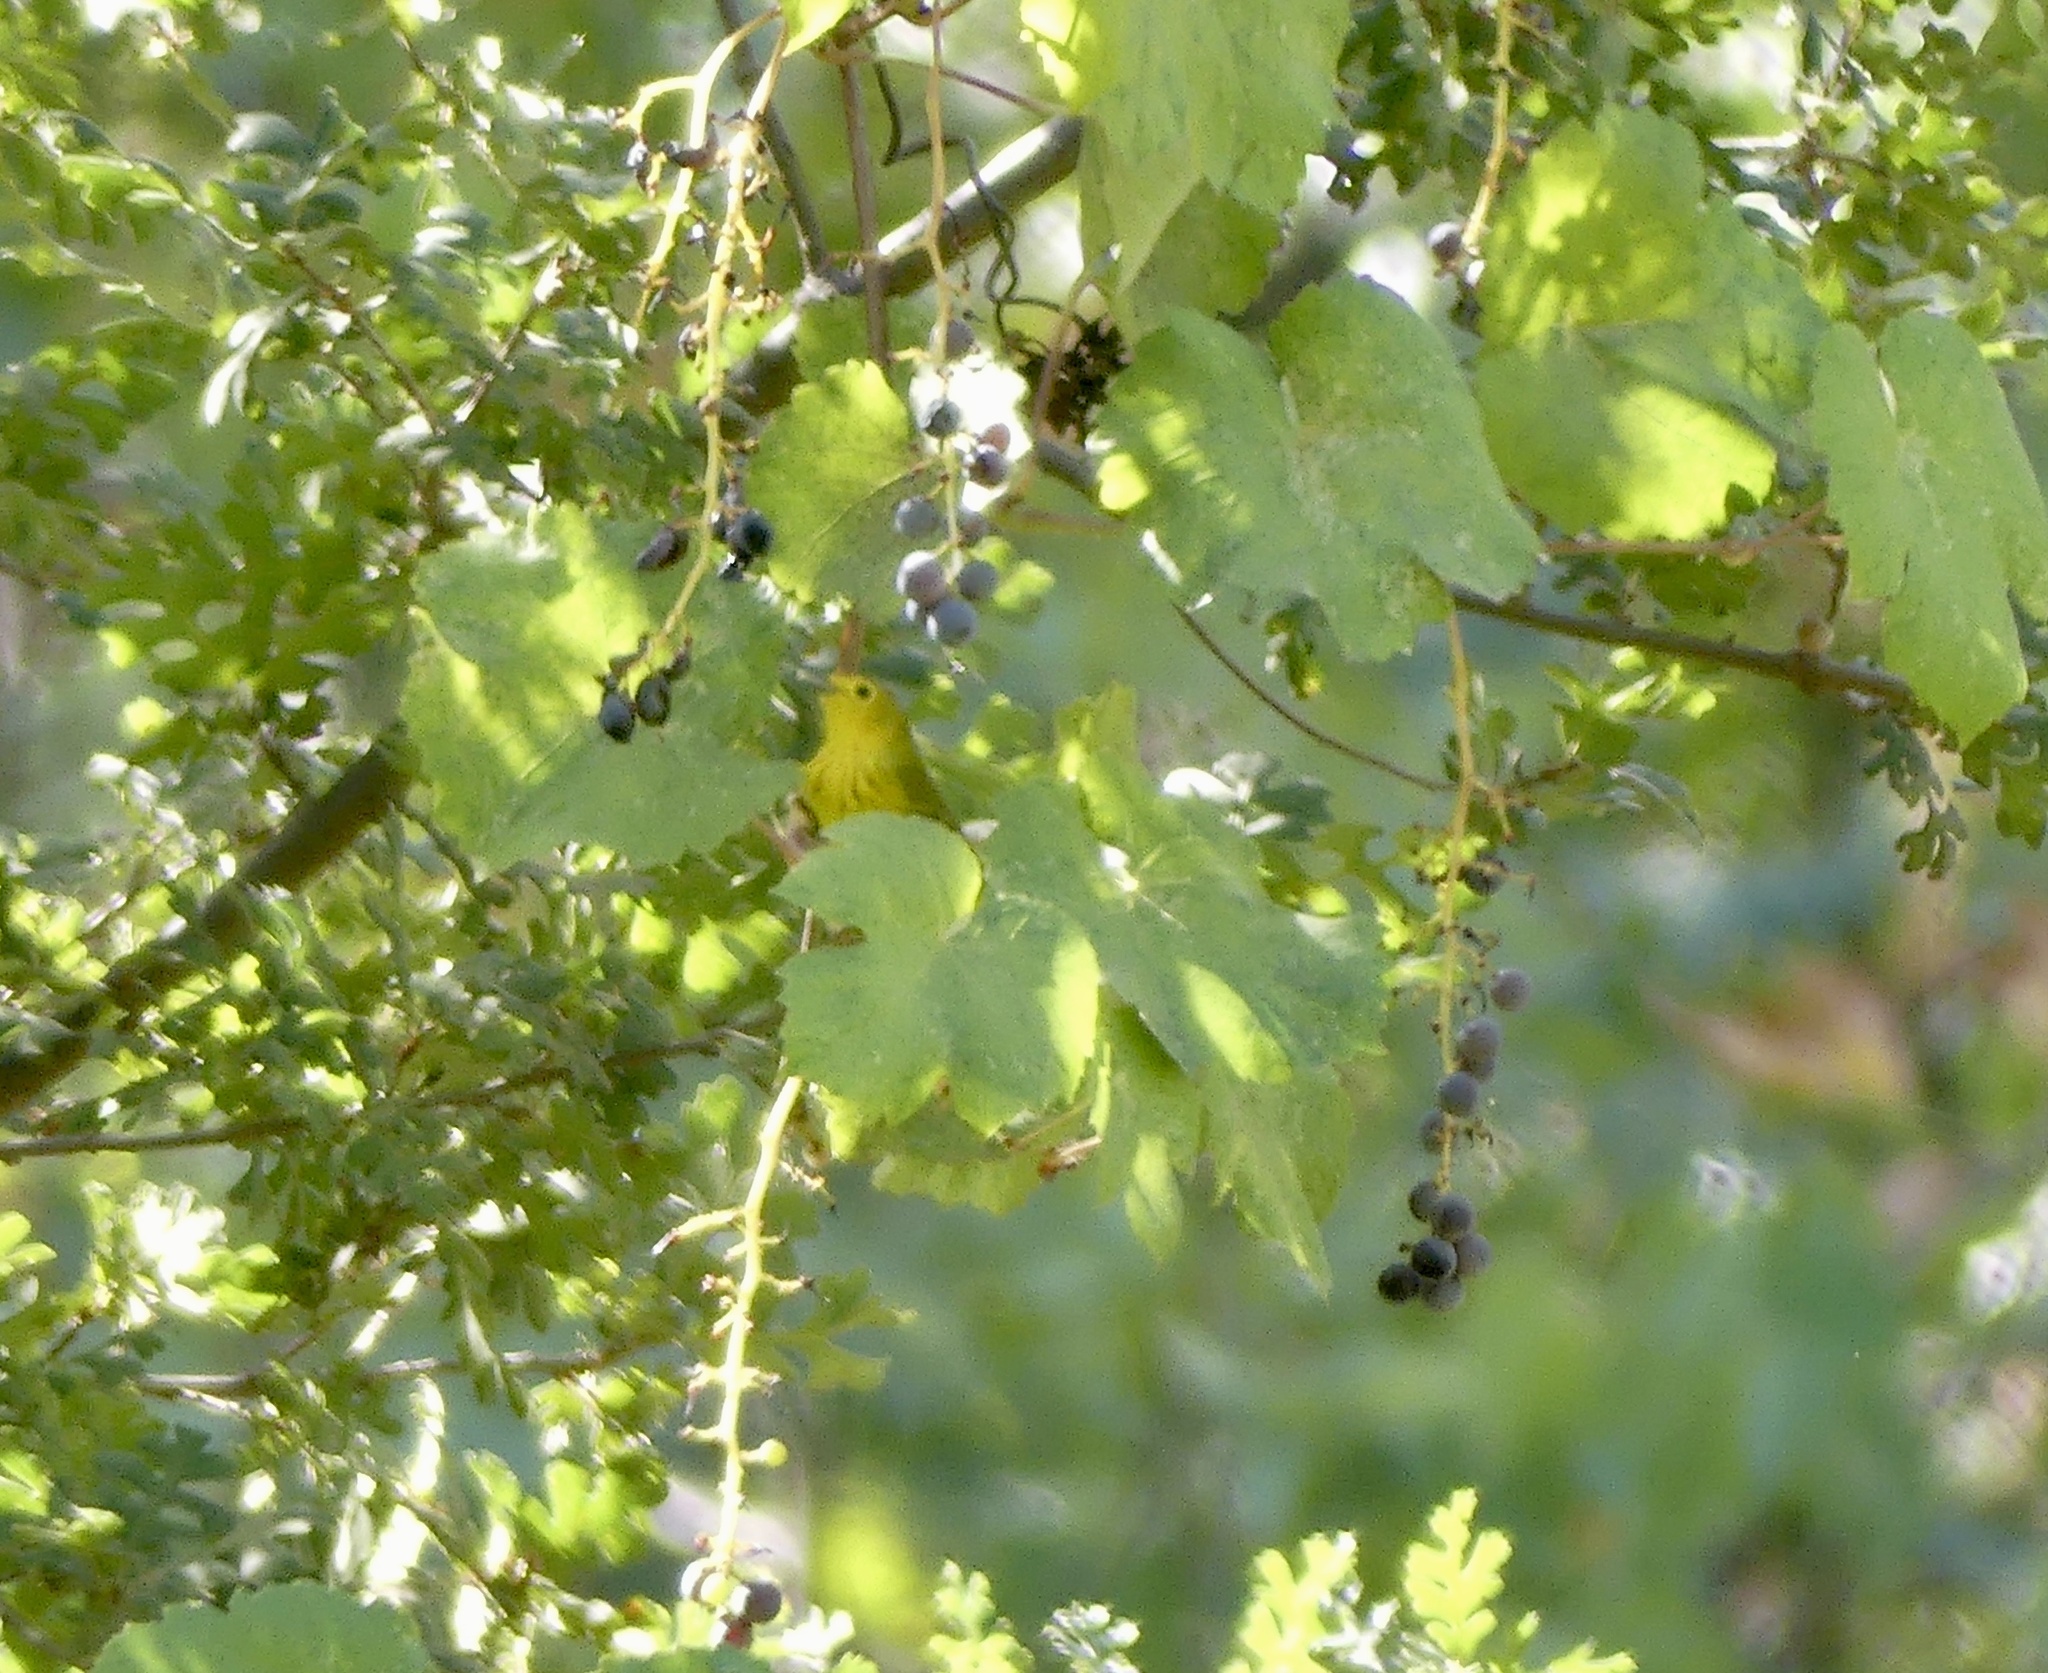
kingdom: Animalia
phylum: Chordata
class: Aves
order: Passeriformes
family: Parulidae
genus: Setophaga
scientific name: Setophaga petechia
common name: Yellow warbler
